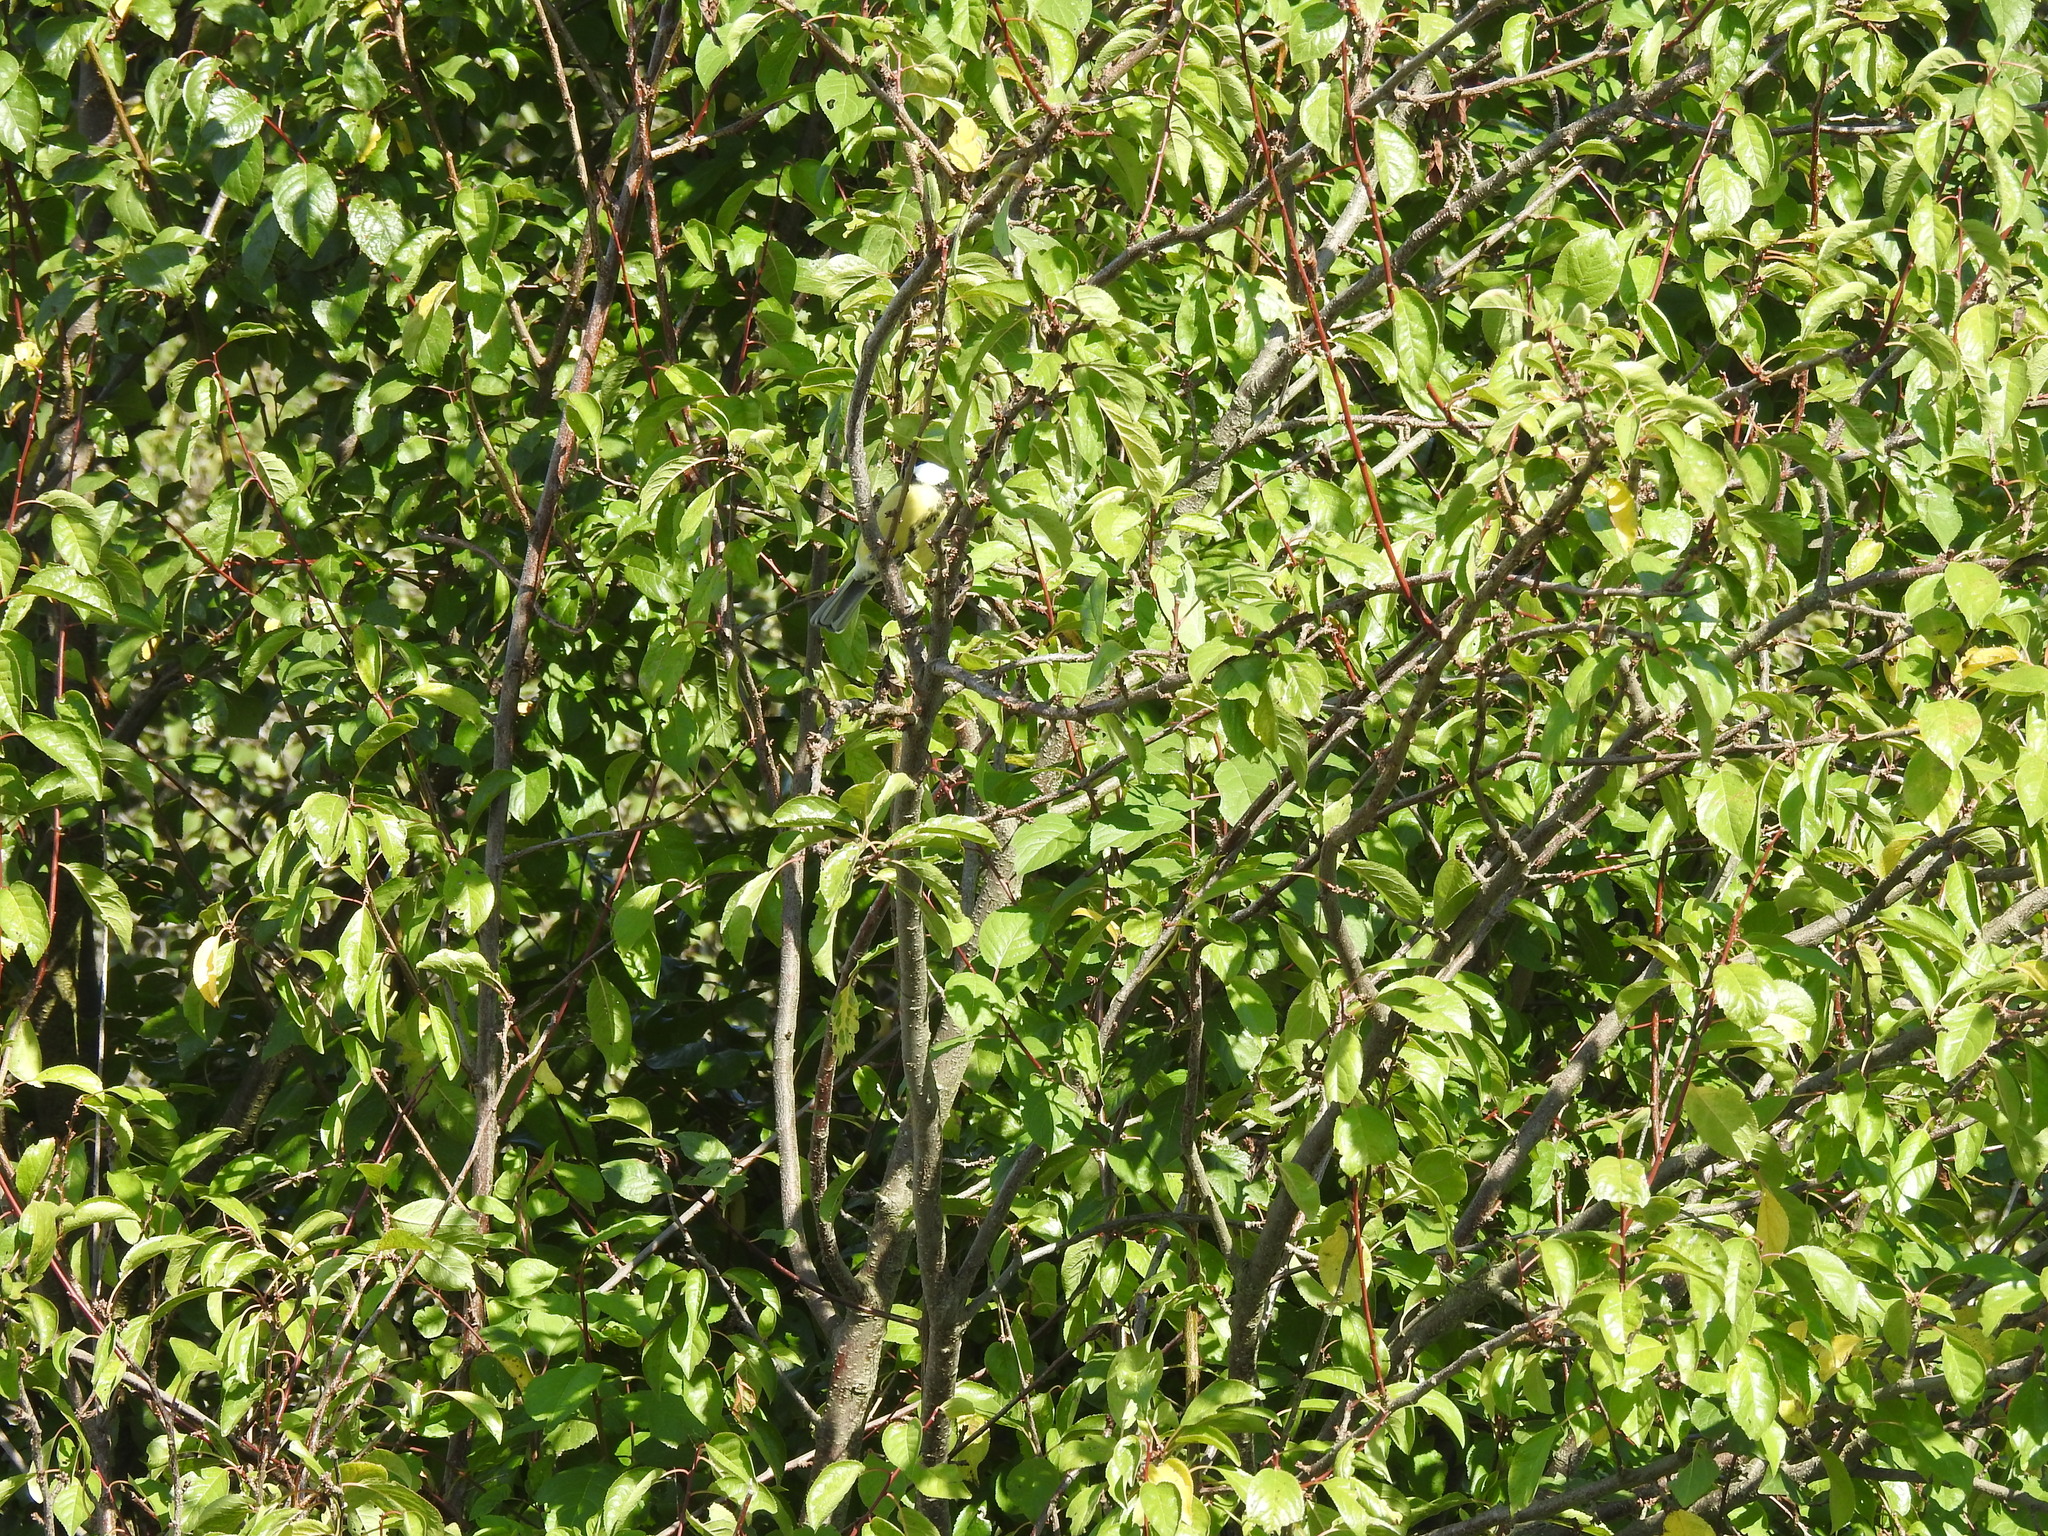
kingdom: Animalia
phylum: Chordata
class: Aves
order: Passeriformes
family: Paridae
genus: Parus
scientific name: Parus major
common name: Great tit
